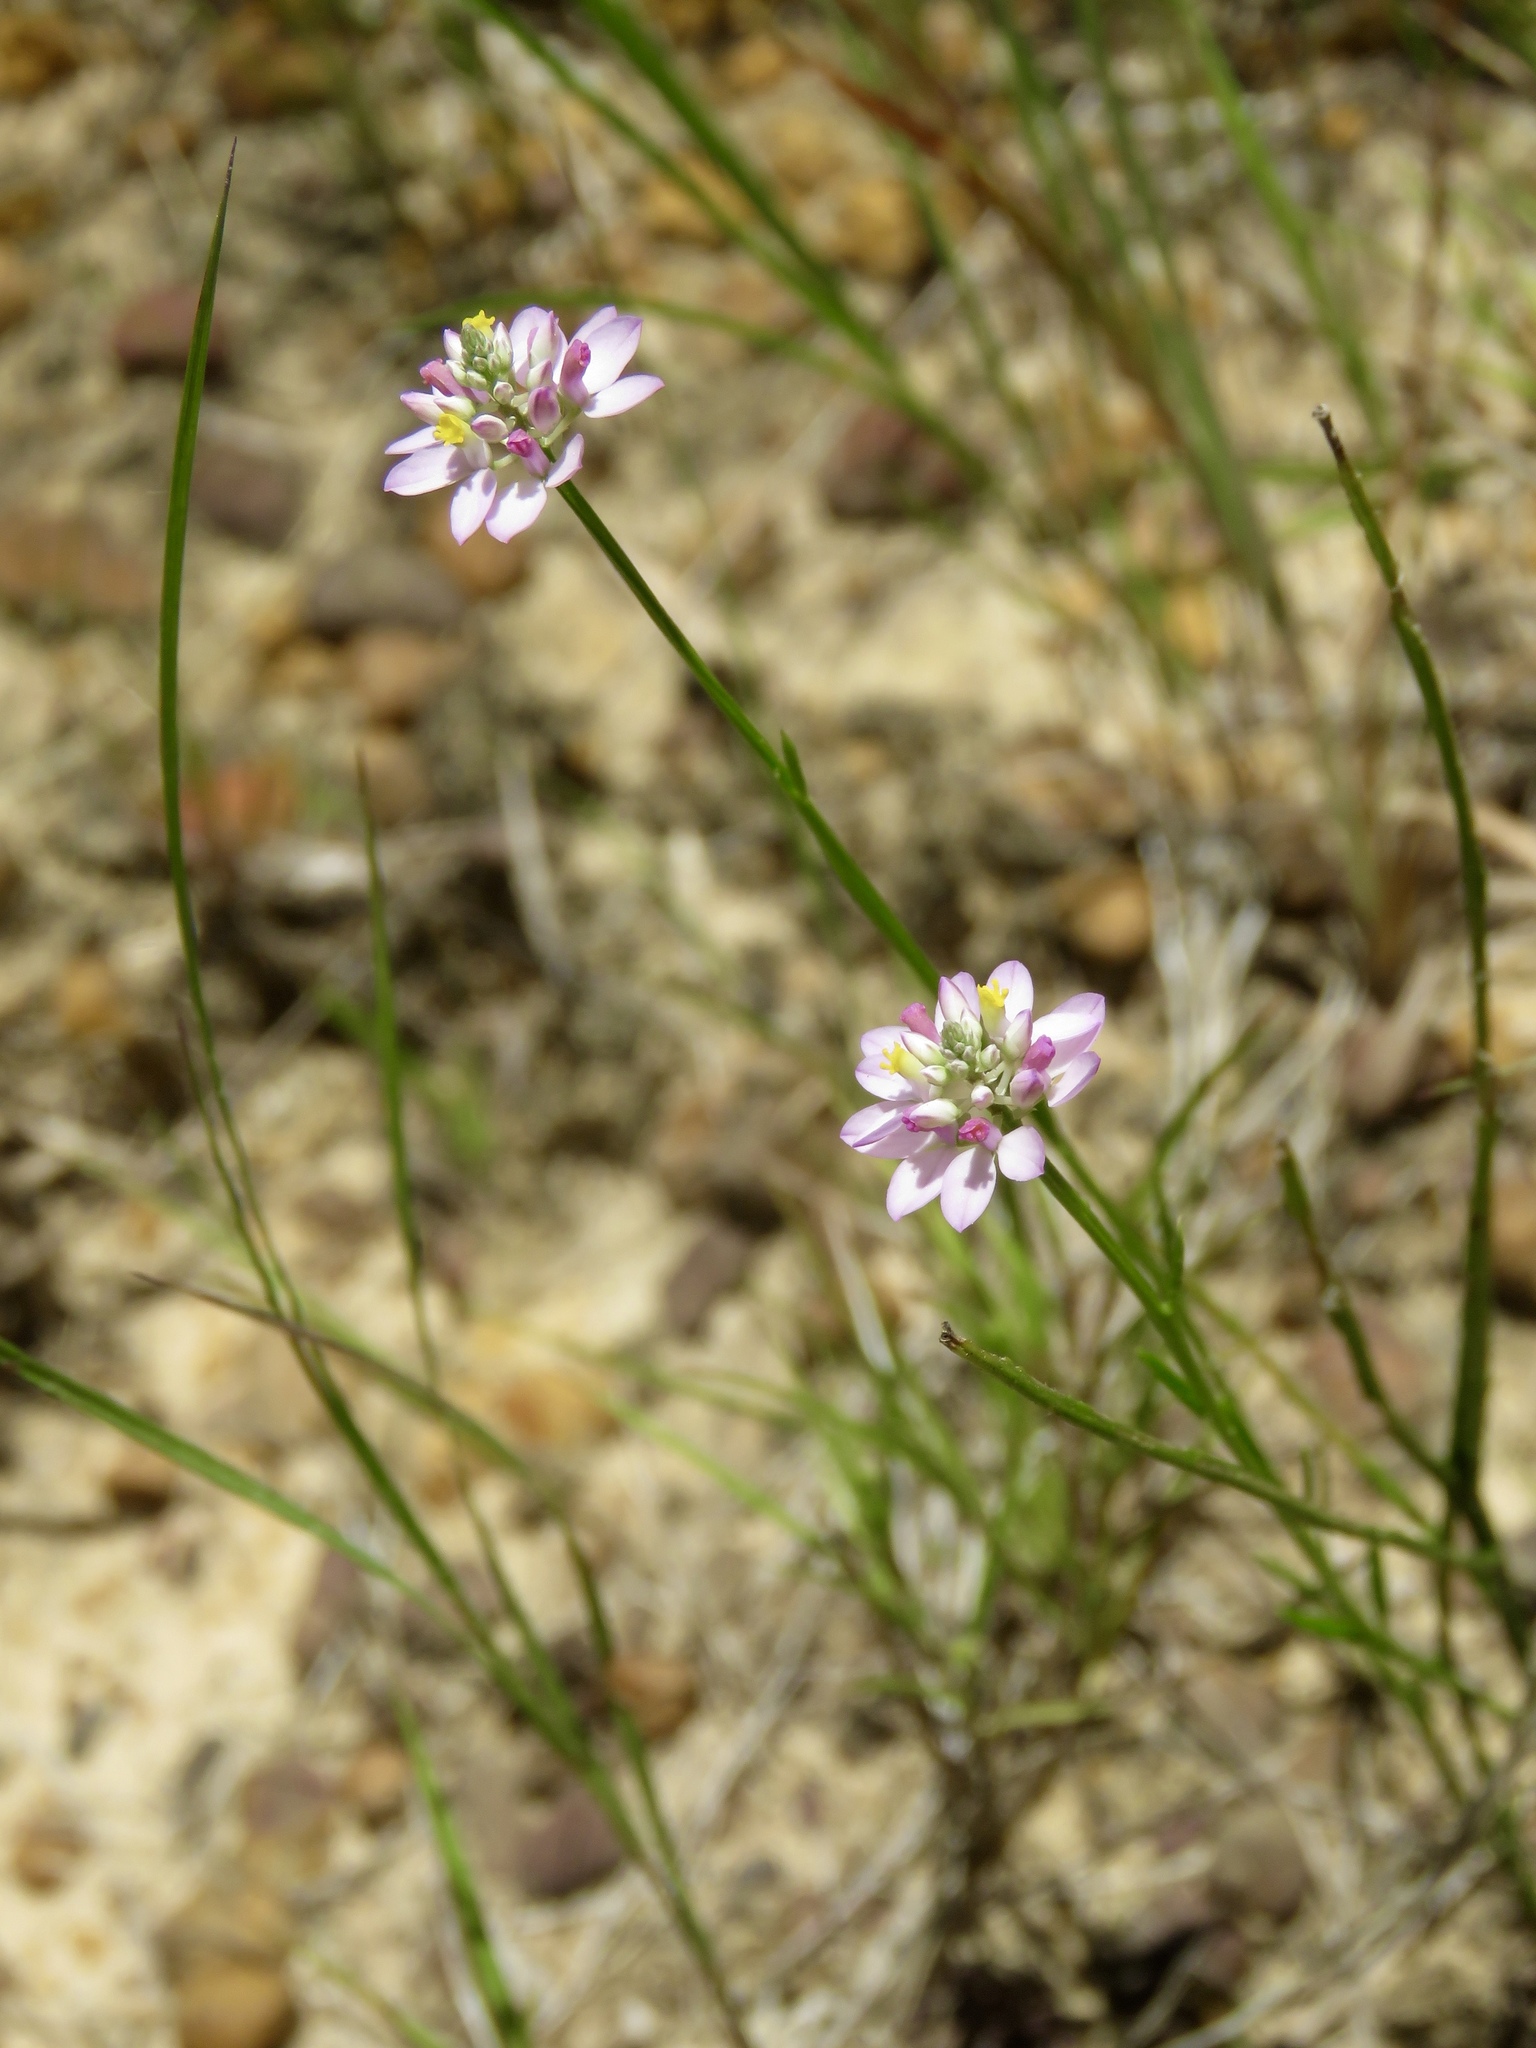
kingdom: Plantae
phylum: Tracheophyta
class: Magnoliopsida
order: Fabales
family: Polygalaceae
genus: Polygala
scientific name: Polygala mariana
